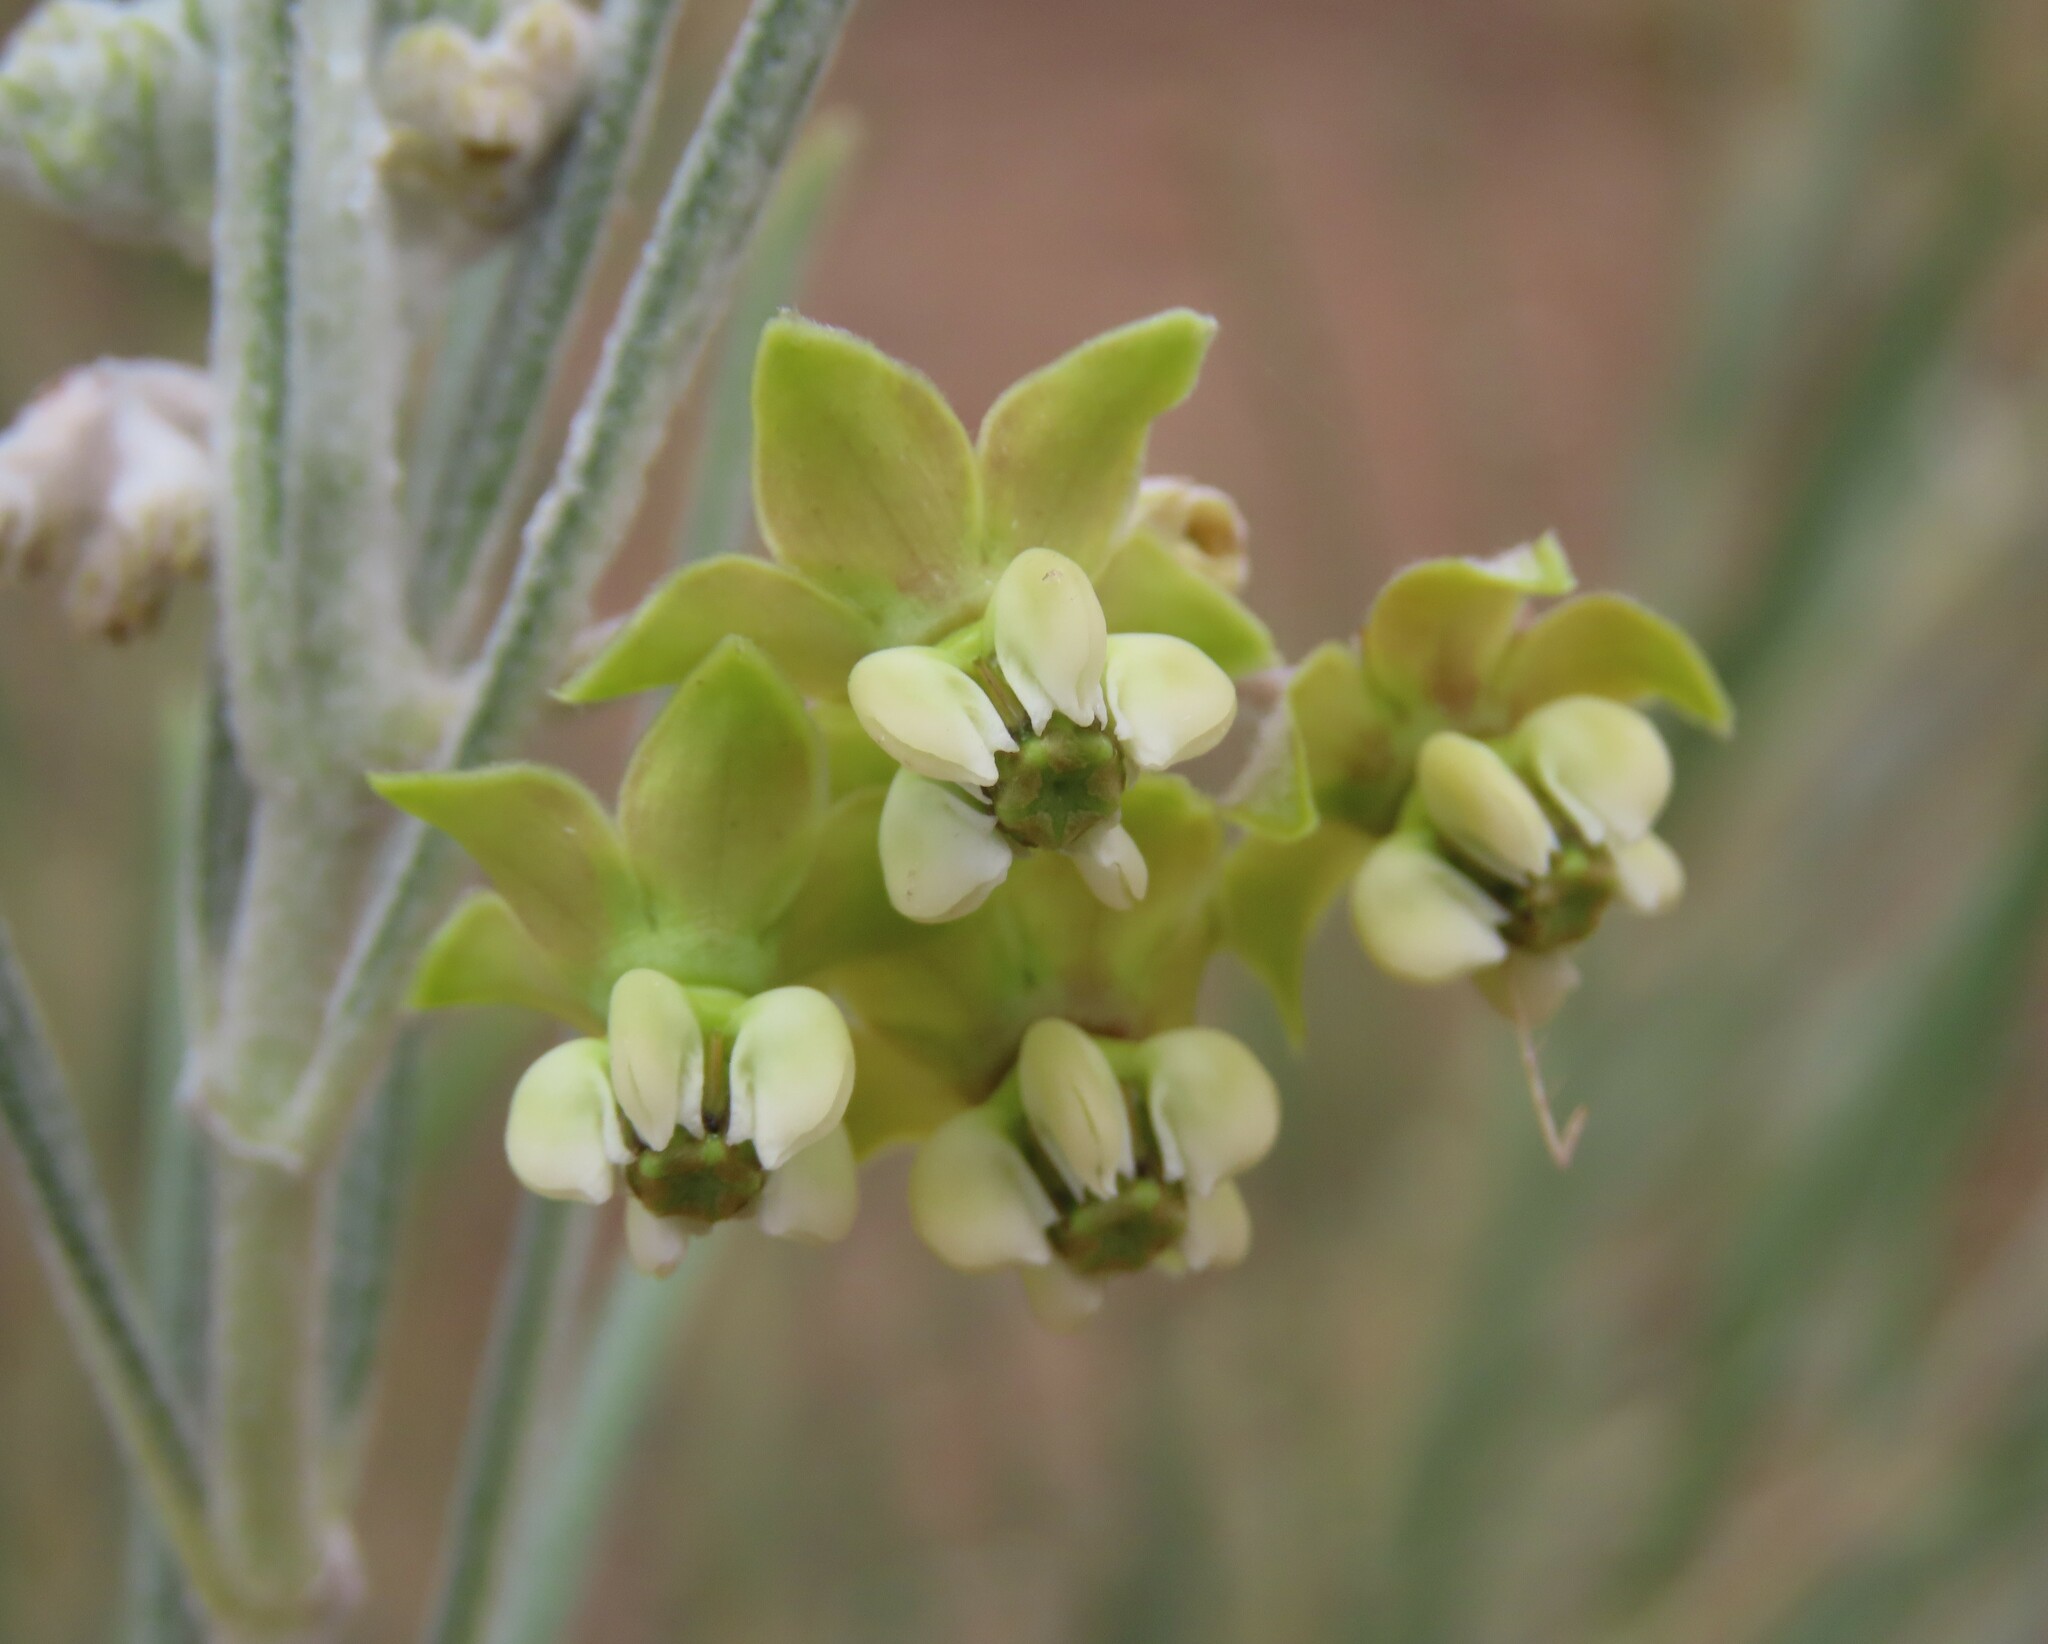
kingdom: Plantae
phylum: Tracheophyta
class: Magnoliopsida
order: Gentianales
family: Apocynaceae
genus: Gomphocarpus
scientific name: Gomphocarpus tomentosus
